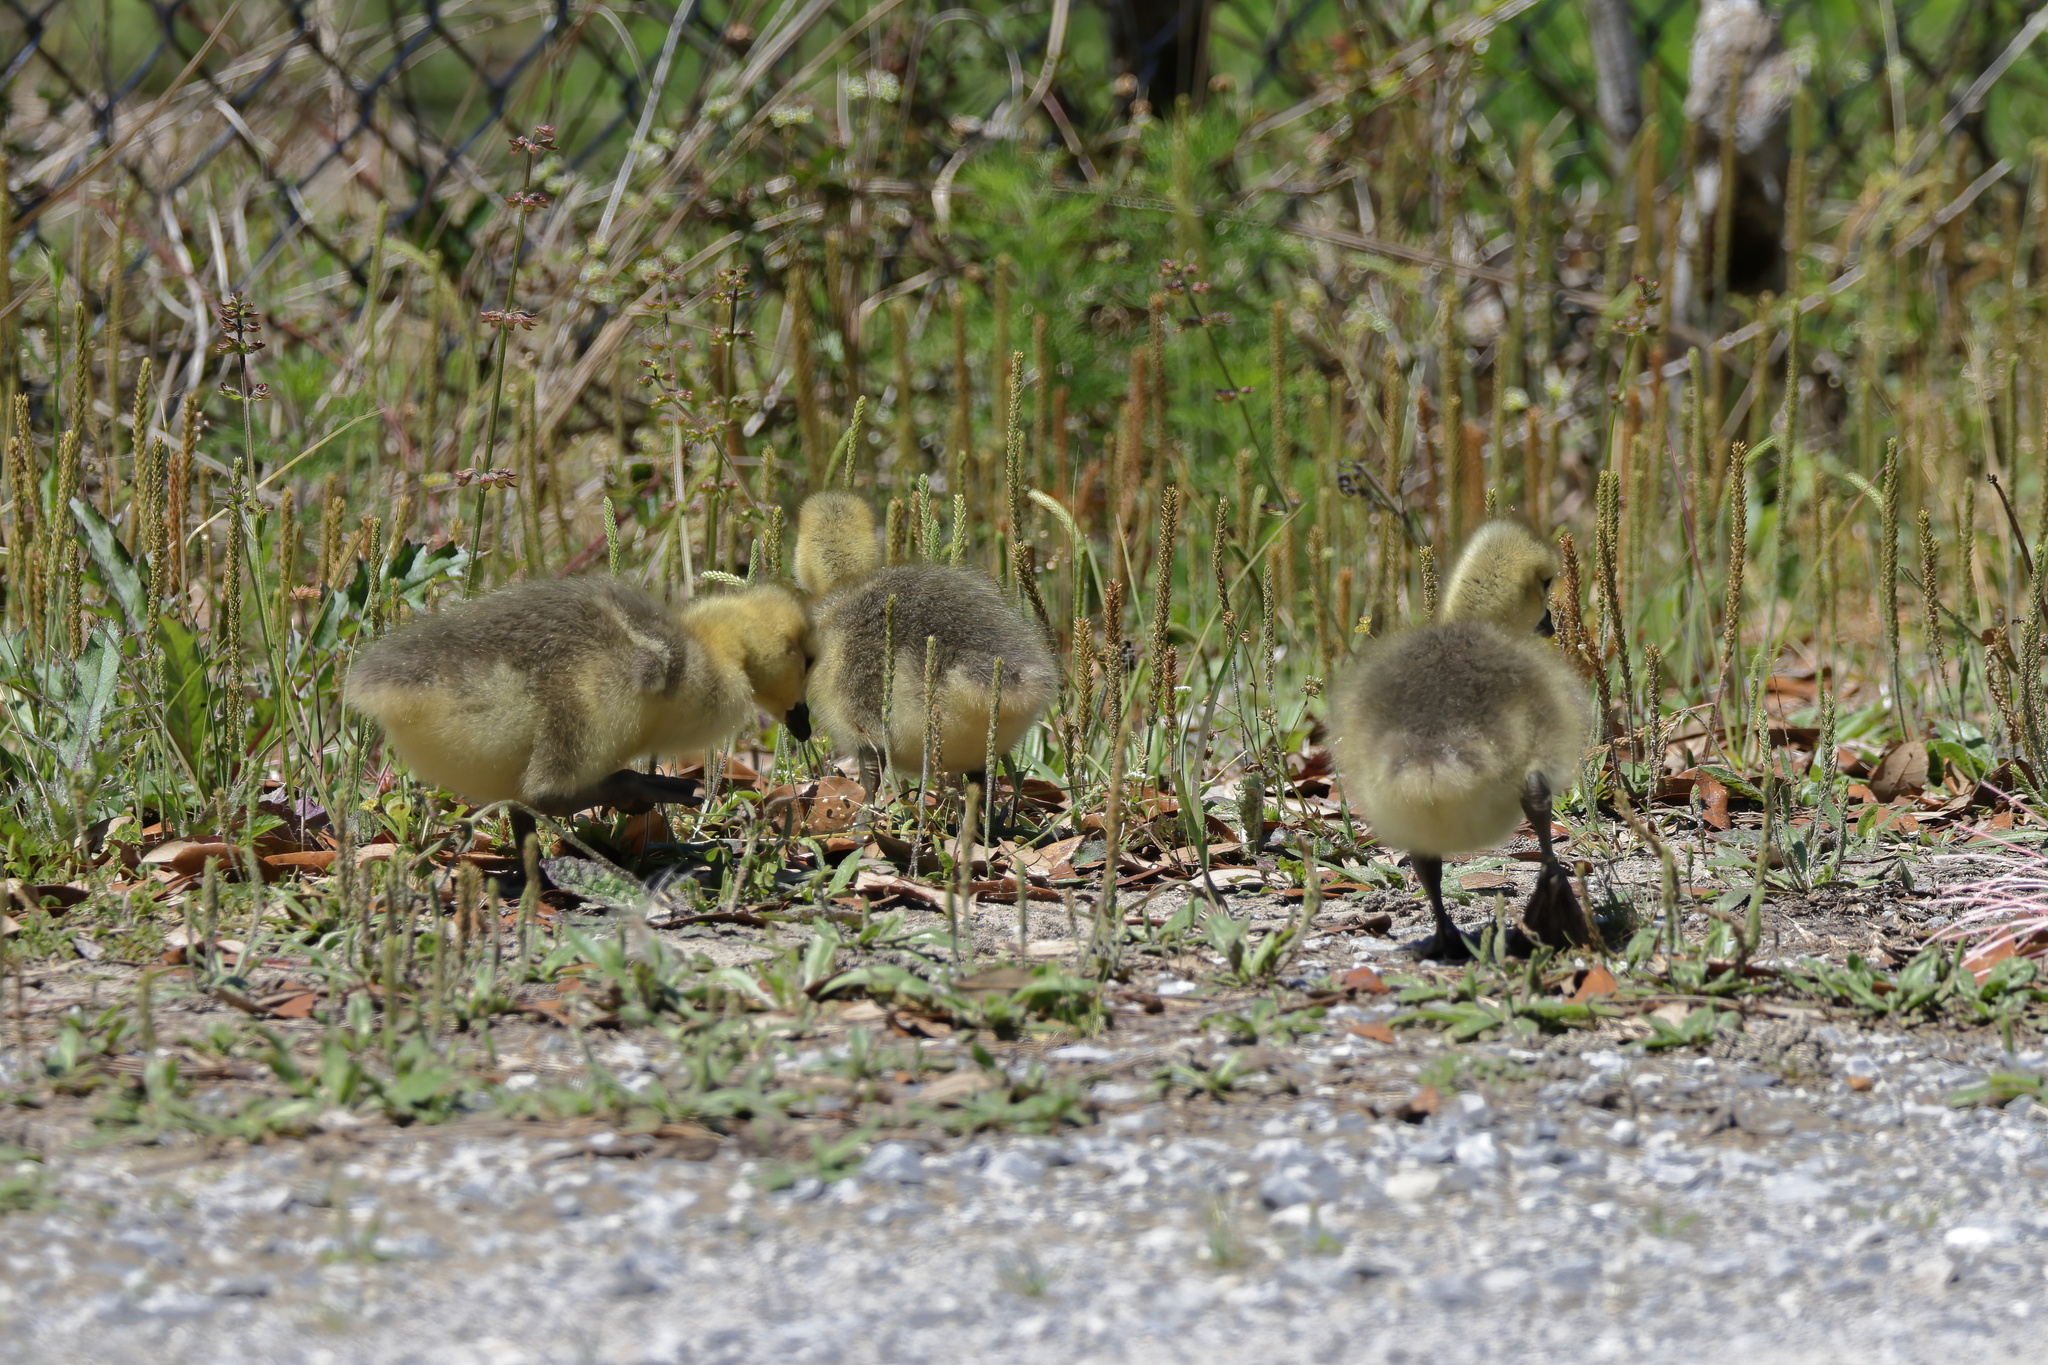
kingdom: Animalia
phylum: Chordata
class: Aves
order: Anseriformes
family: Anatidae
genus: Branta
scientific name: Branta canadensis
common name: Canada goose
